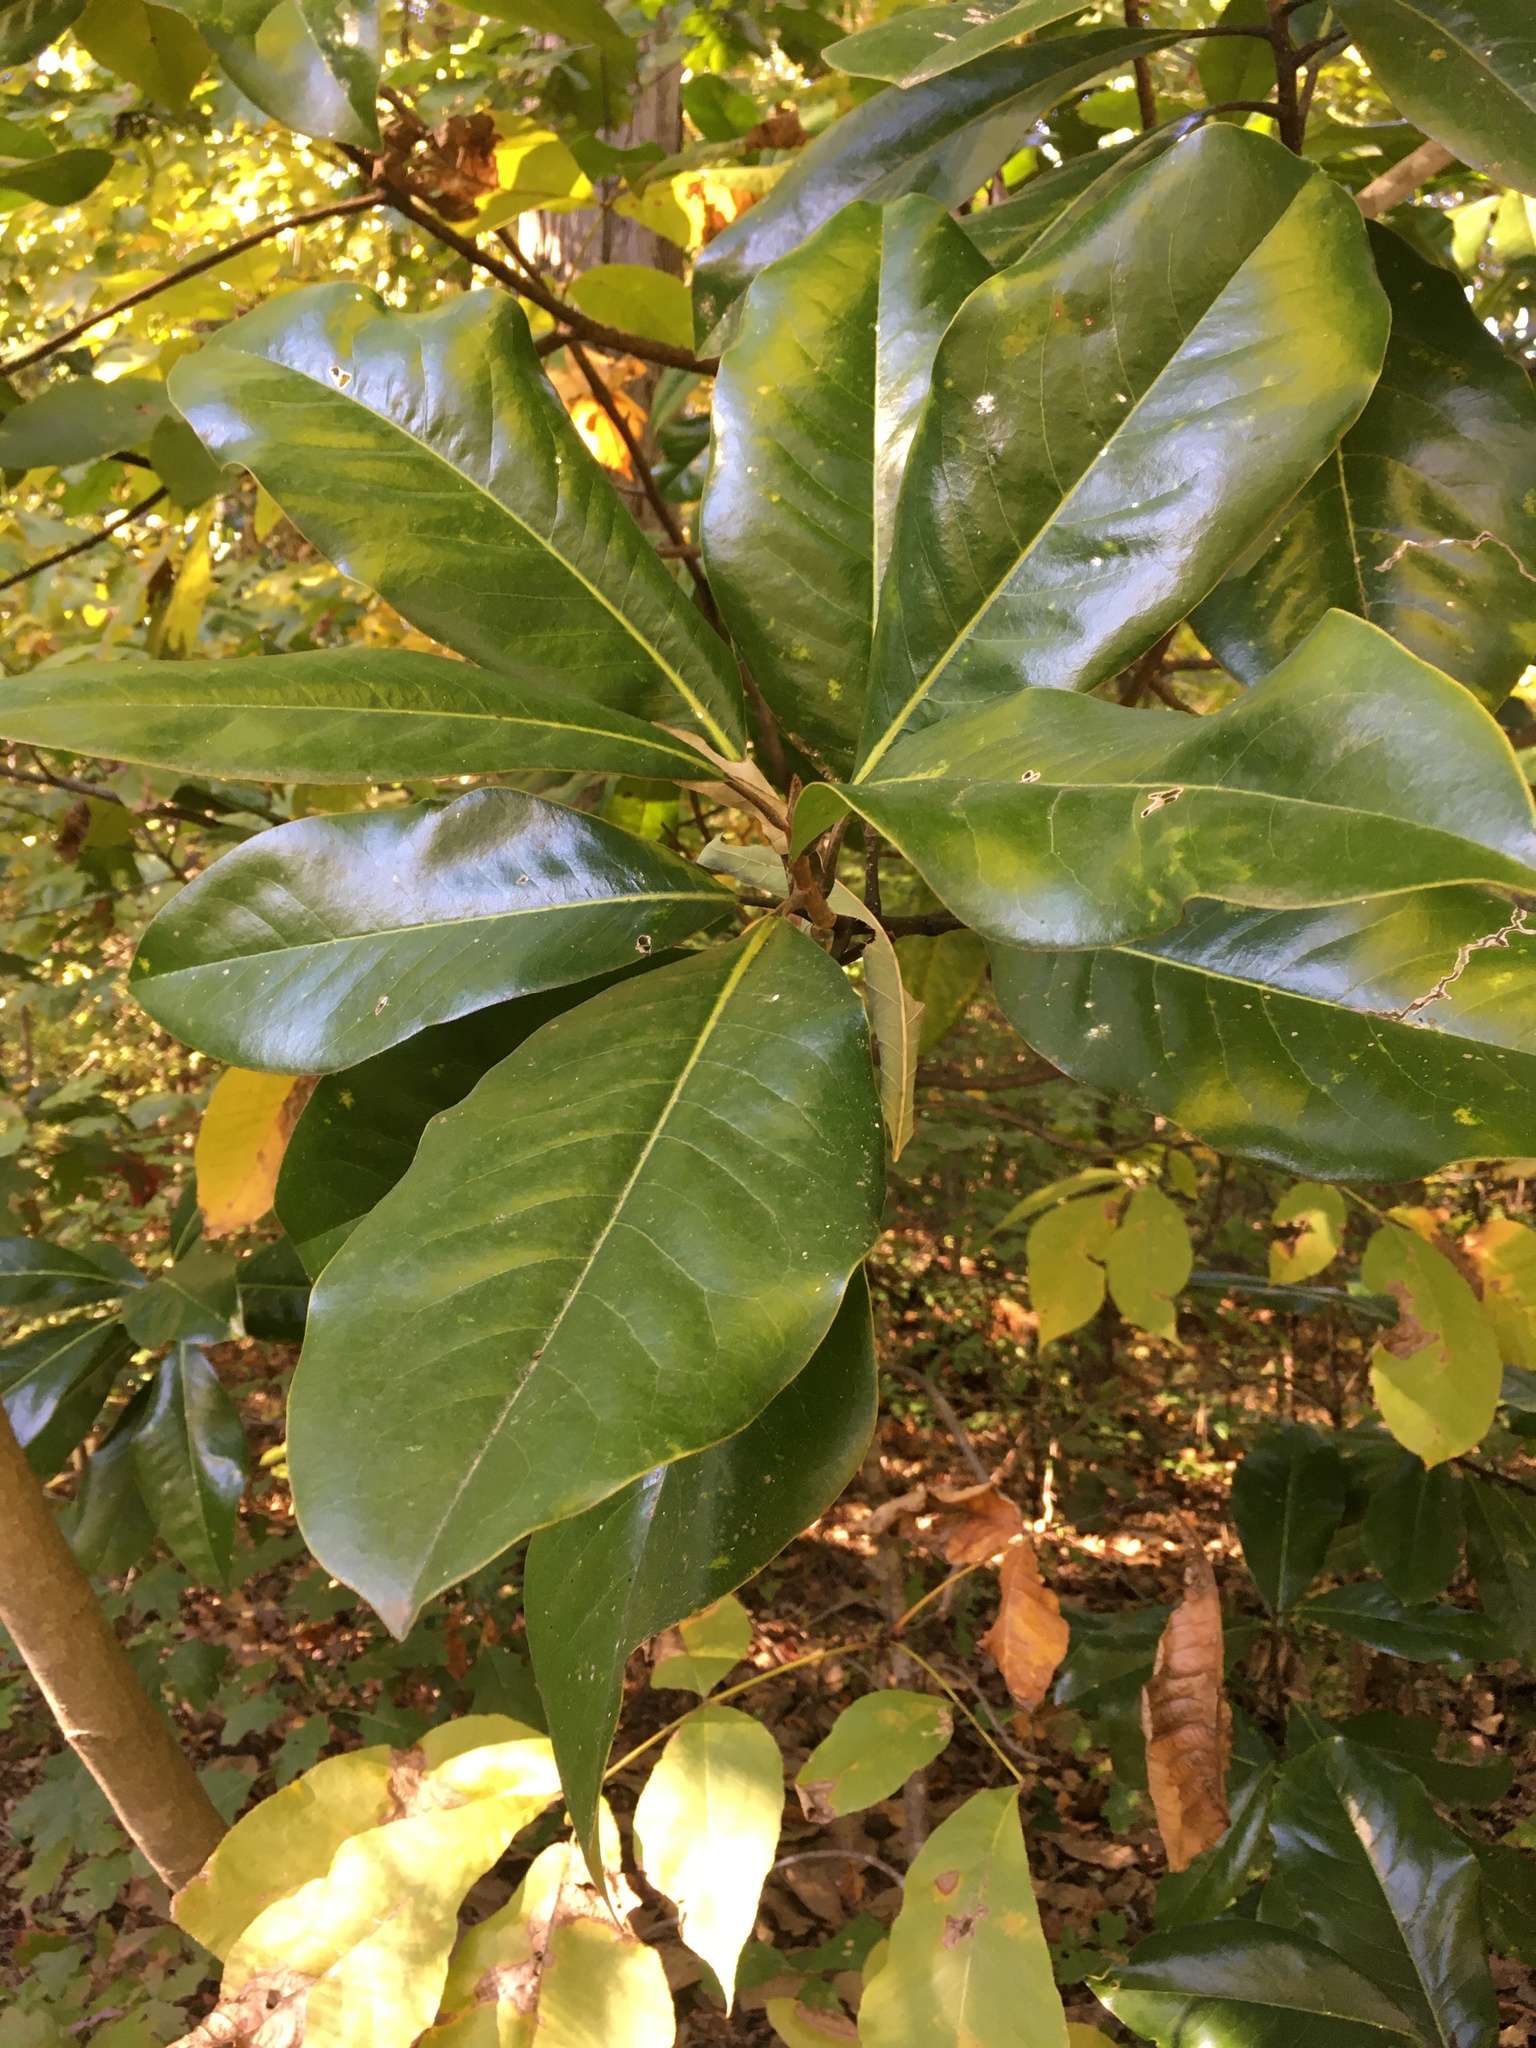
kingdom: Plantae
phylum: Tracheophyta
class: Magnoliopsida
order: Magnoliales
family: Magnoliaceae
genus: Magnolia
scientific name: Magnolia grandiflora
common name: Southern magnolia
